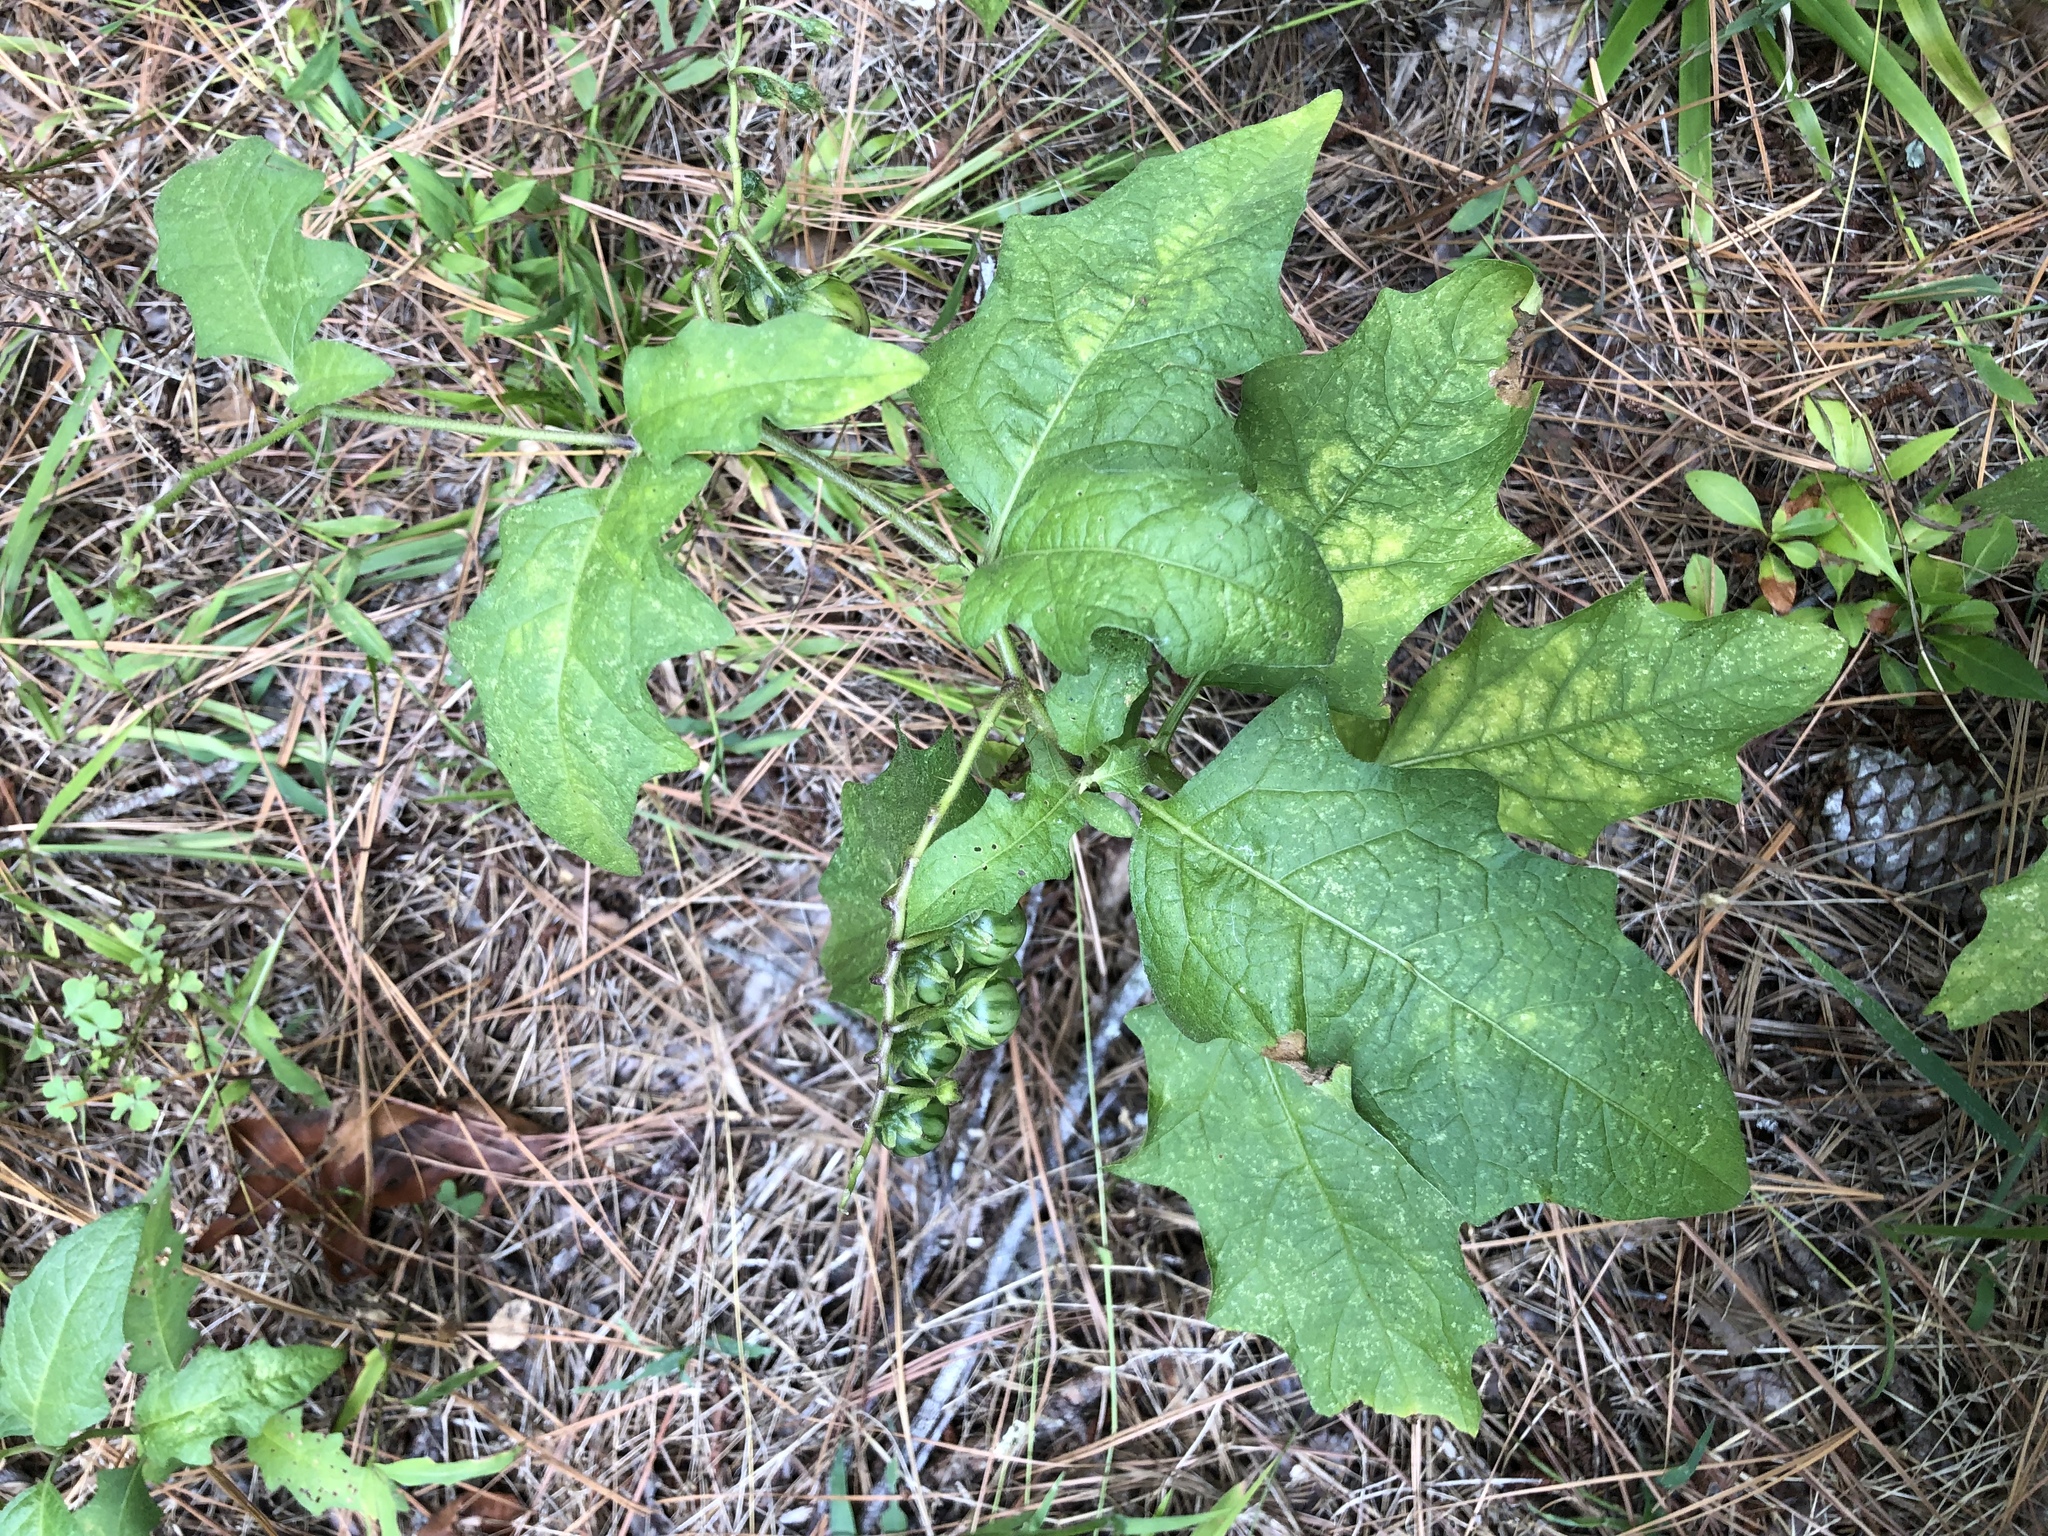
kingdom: Plantae
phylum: Tracheophyta
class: Magnoliopsida
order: Solanales
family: Solanaceae
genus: Solanum
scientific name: Solanum carolinense
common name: Horse-nettle
